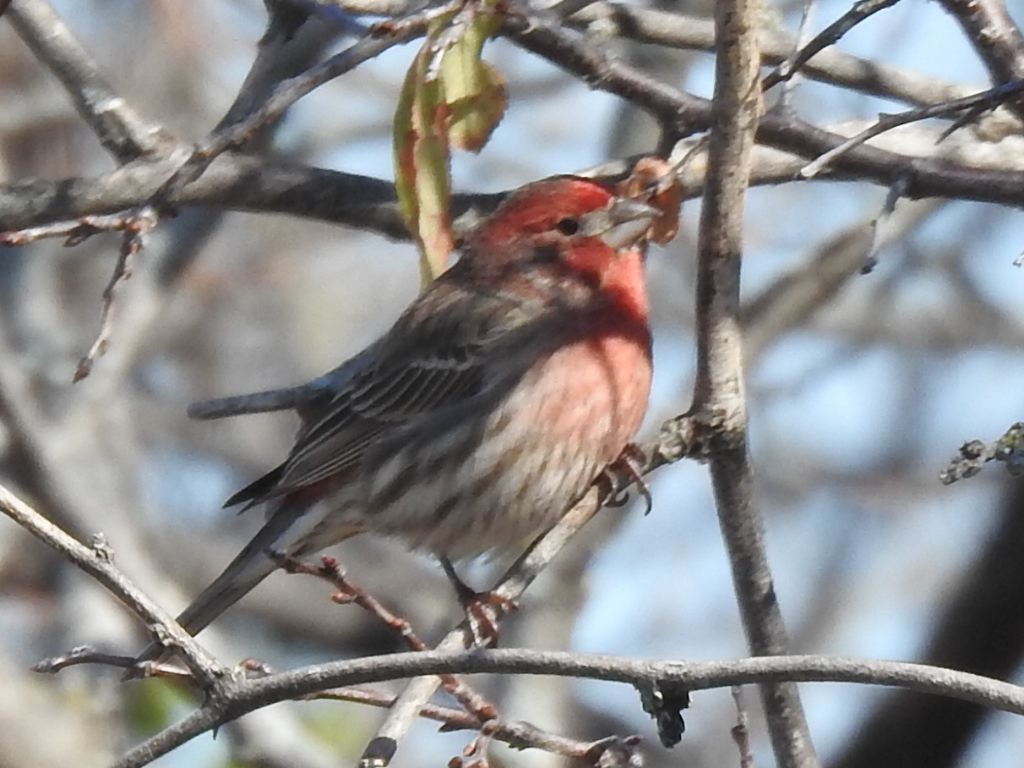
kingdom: Animalia
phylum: Chordata
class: Aves
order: Passeriformes
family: Fringillidae
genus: Haemorhous
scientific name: Haemorhous mexicanus
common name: House finch
